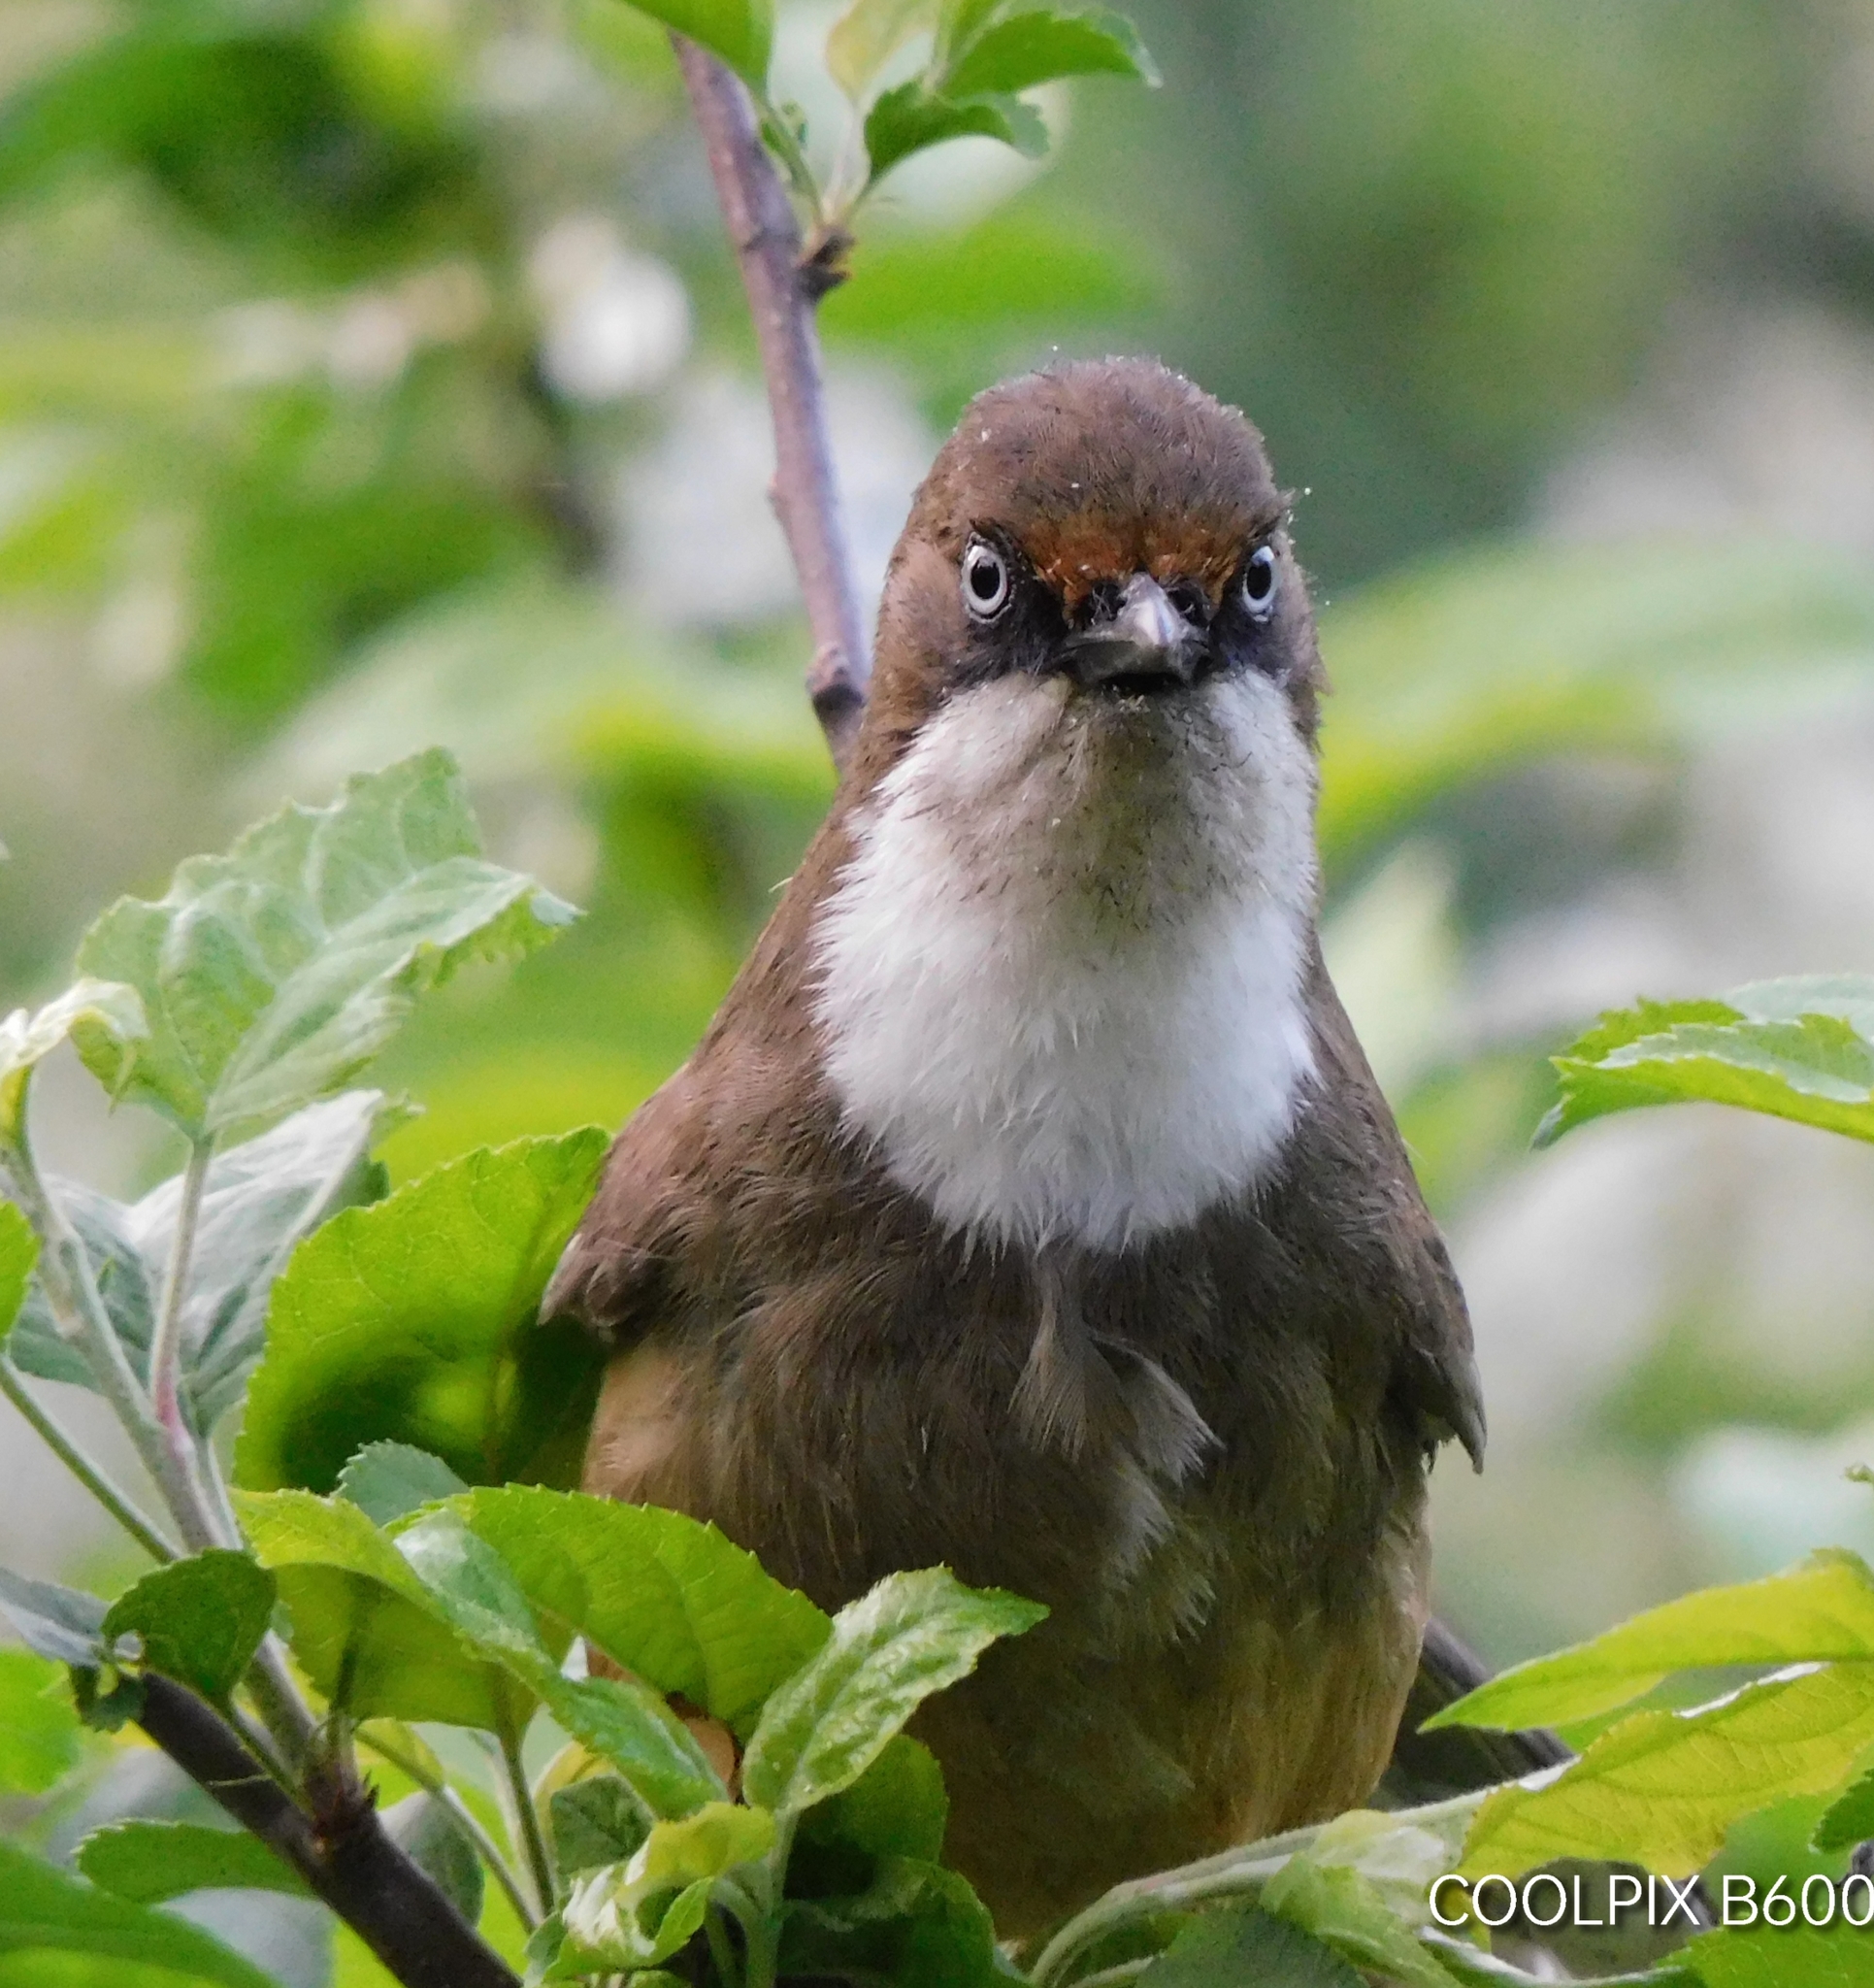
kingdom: Animalia
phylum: Chordata
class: Aves
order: Passeriformes
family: Leiothrichidae
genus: Garrulax
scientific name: Garrulax albogularis
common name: White-throated laughingthrush
